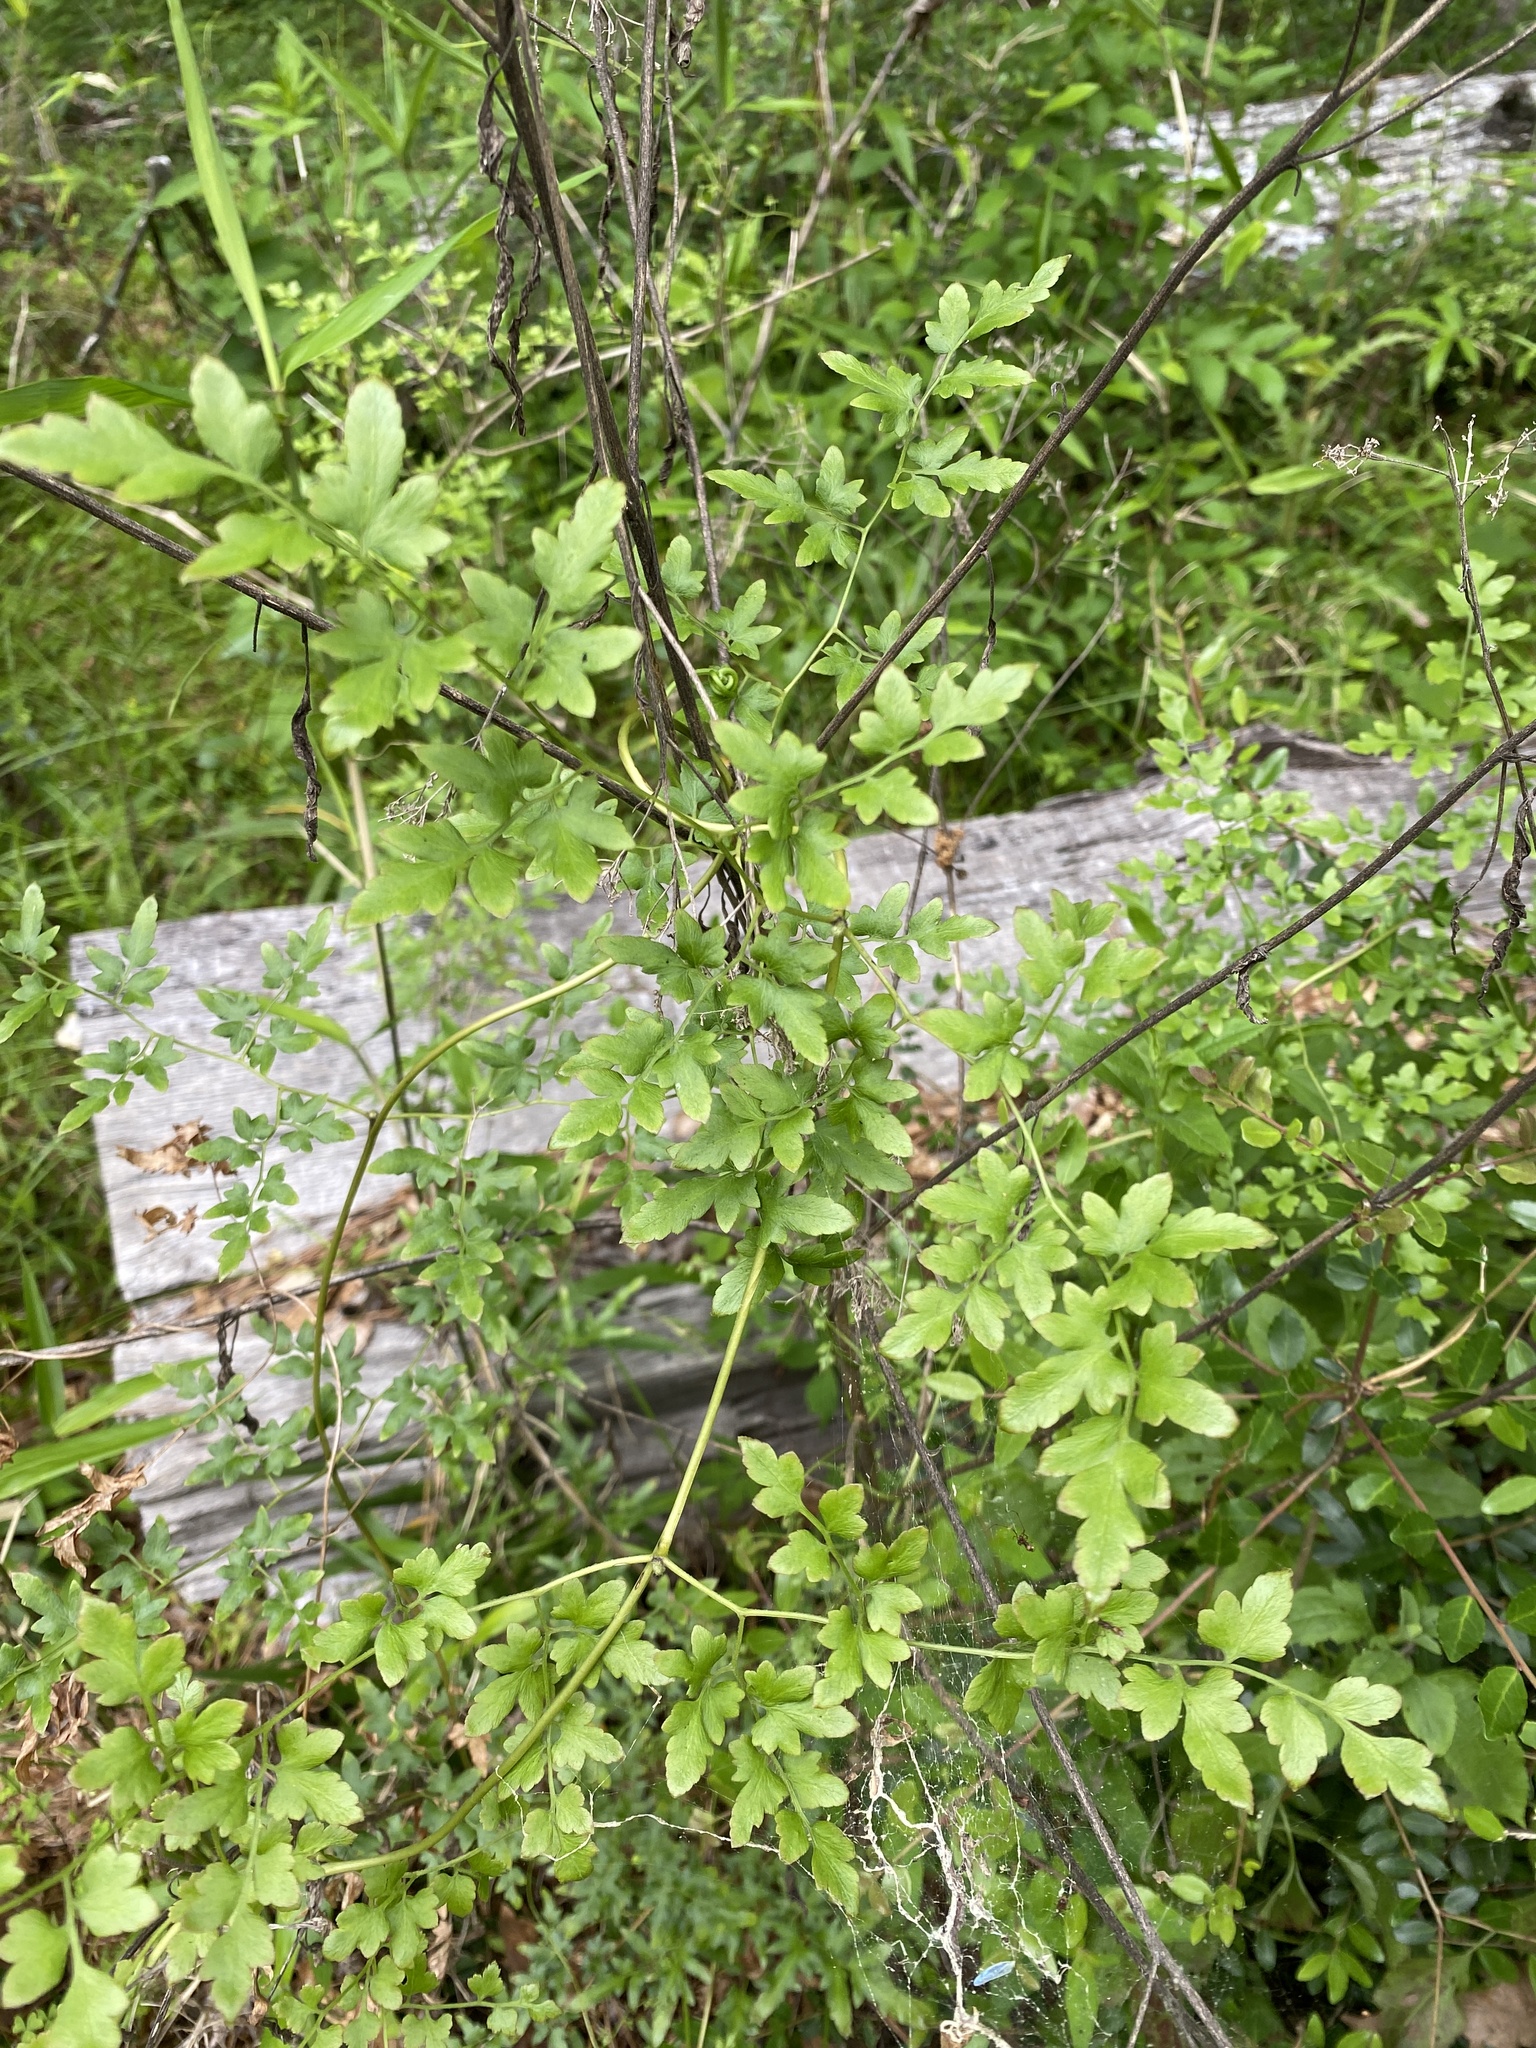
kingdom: Plantae
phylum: Tracheophyta
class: Polypodiopsida
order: Schizaeales
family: Lygodiaceae
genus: Lygodium
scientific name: Lygodium japonicum
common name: Japanese climbing fern
